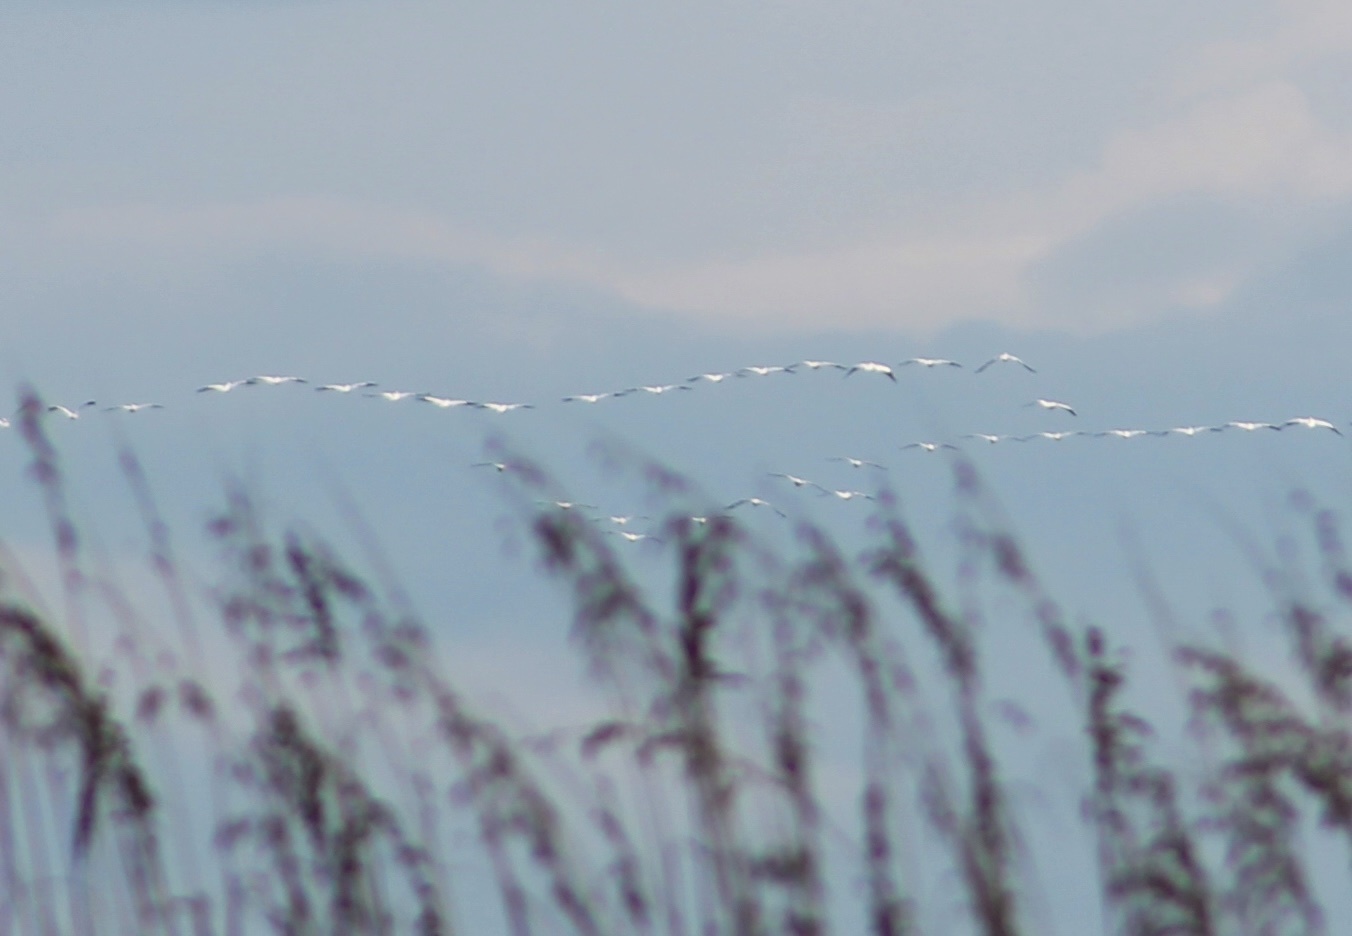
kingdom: Animalia
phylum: Chordata
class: Aves
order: Pelecaniformes
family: Pelecanidae
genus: Pelecanus
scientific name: Pelecanus erythrorhynchos
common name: American white pelican
